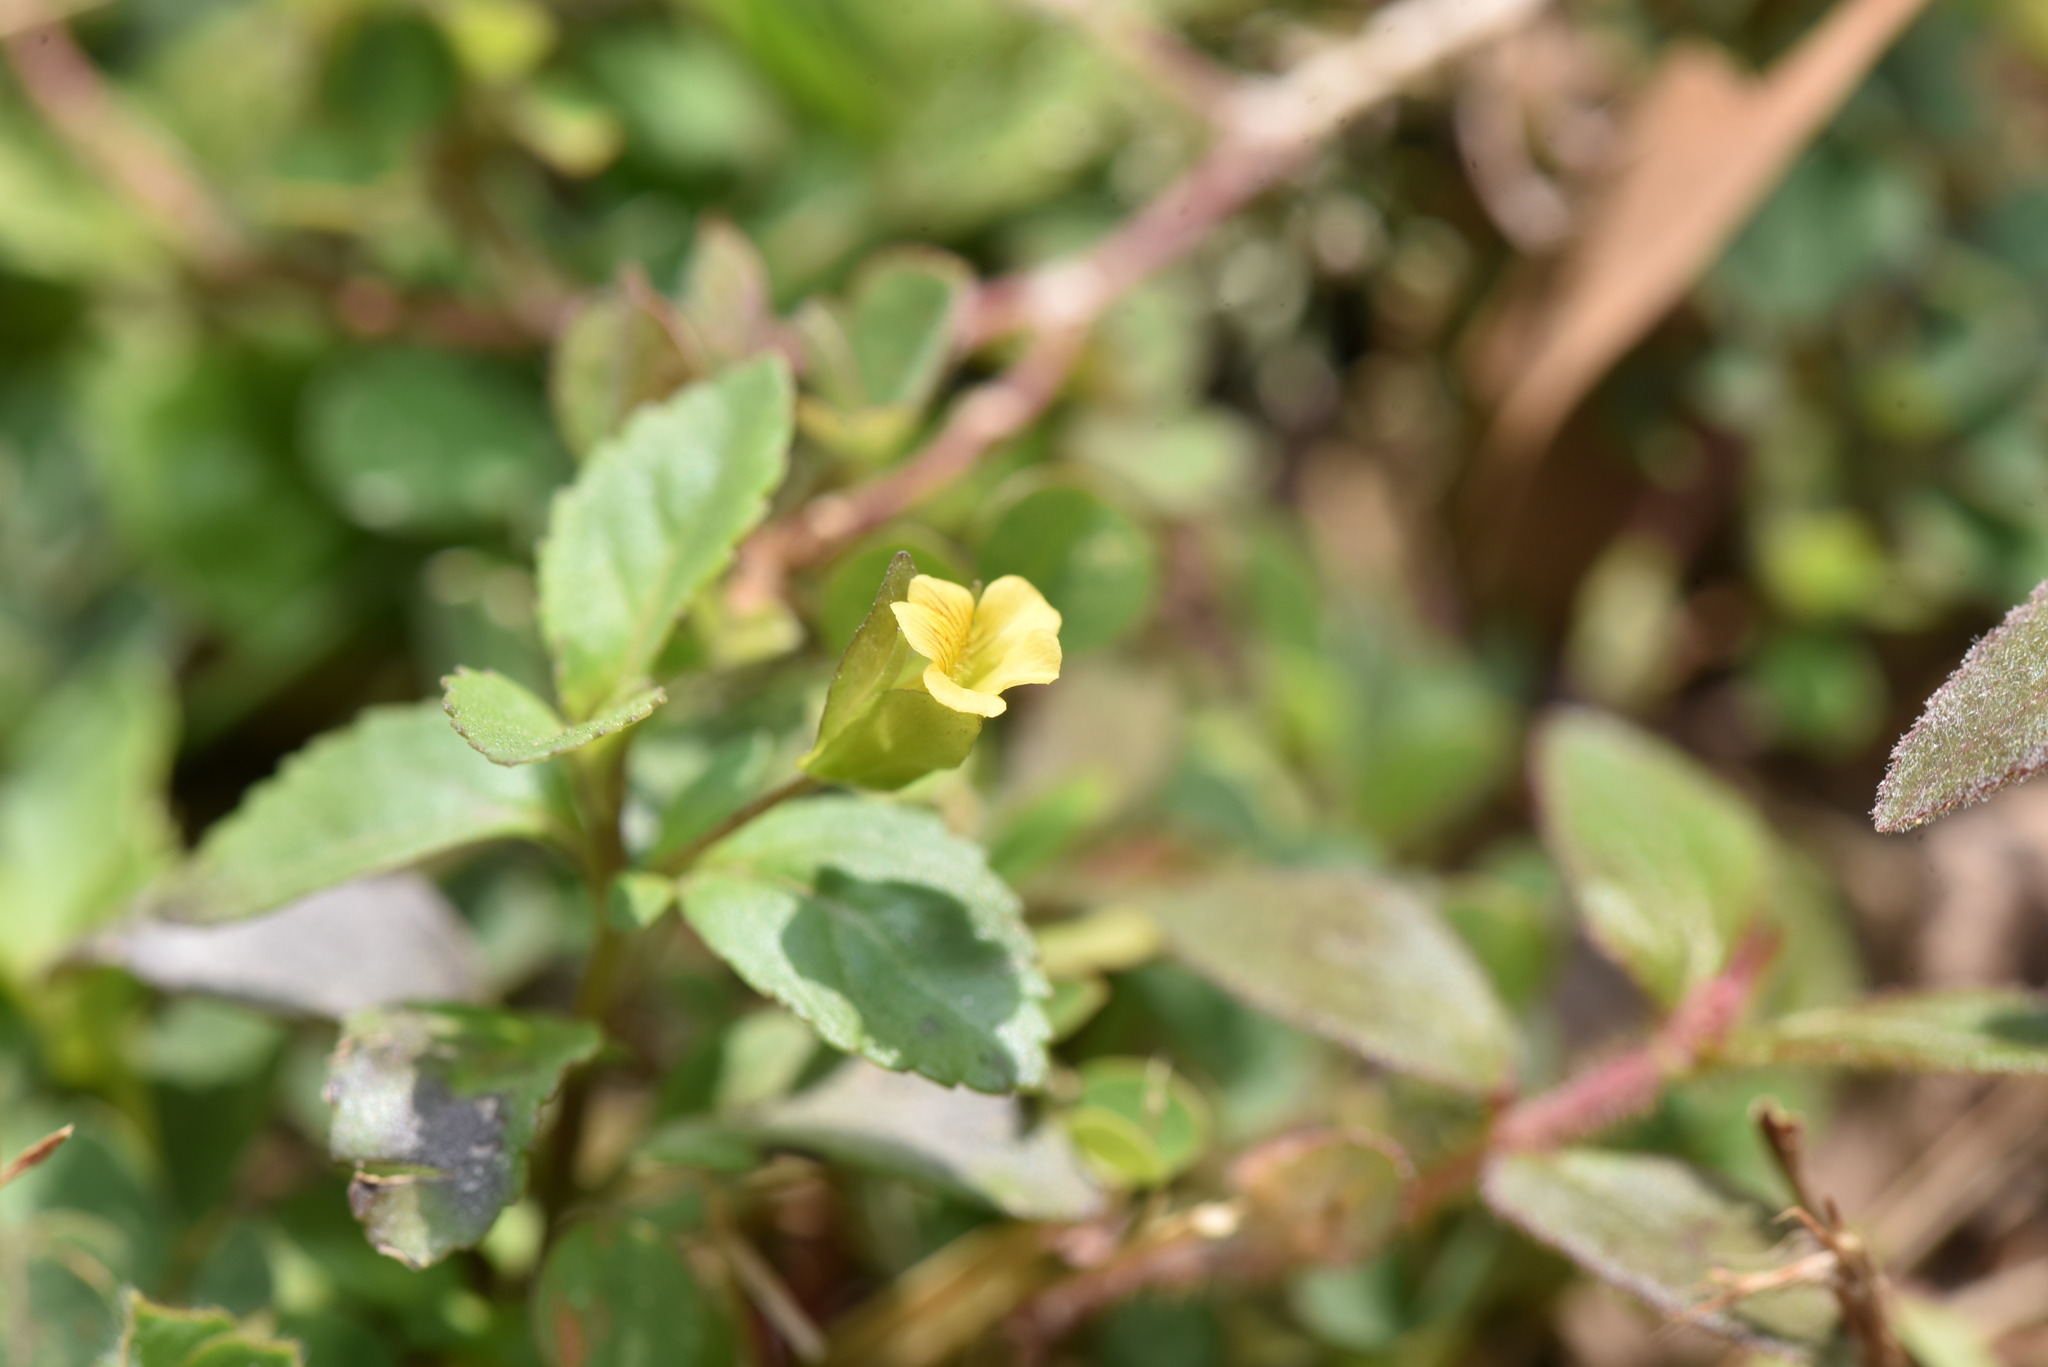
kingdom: Plantae
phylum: Tracheophyta
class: Magnoliopsida
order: Lamiales
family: Plantaginaceae
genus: Mecardonia
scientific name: Mecardonia procumbens
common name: Baby jump-up
